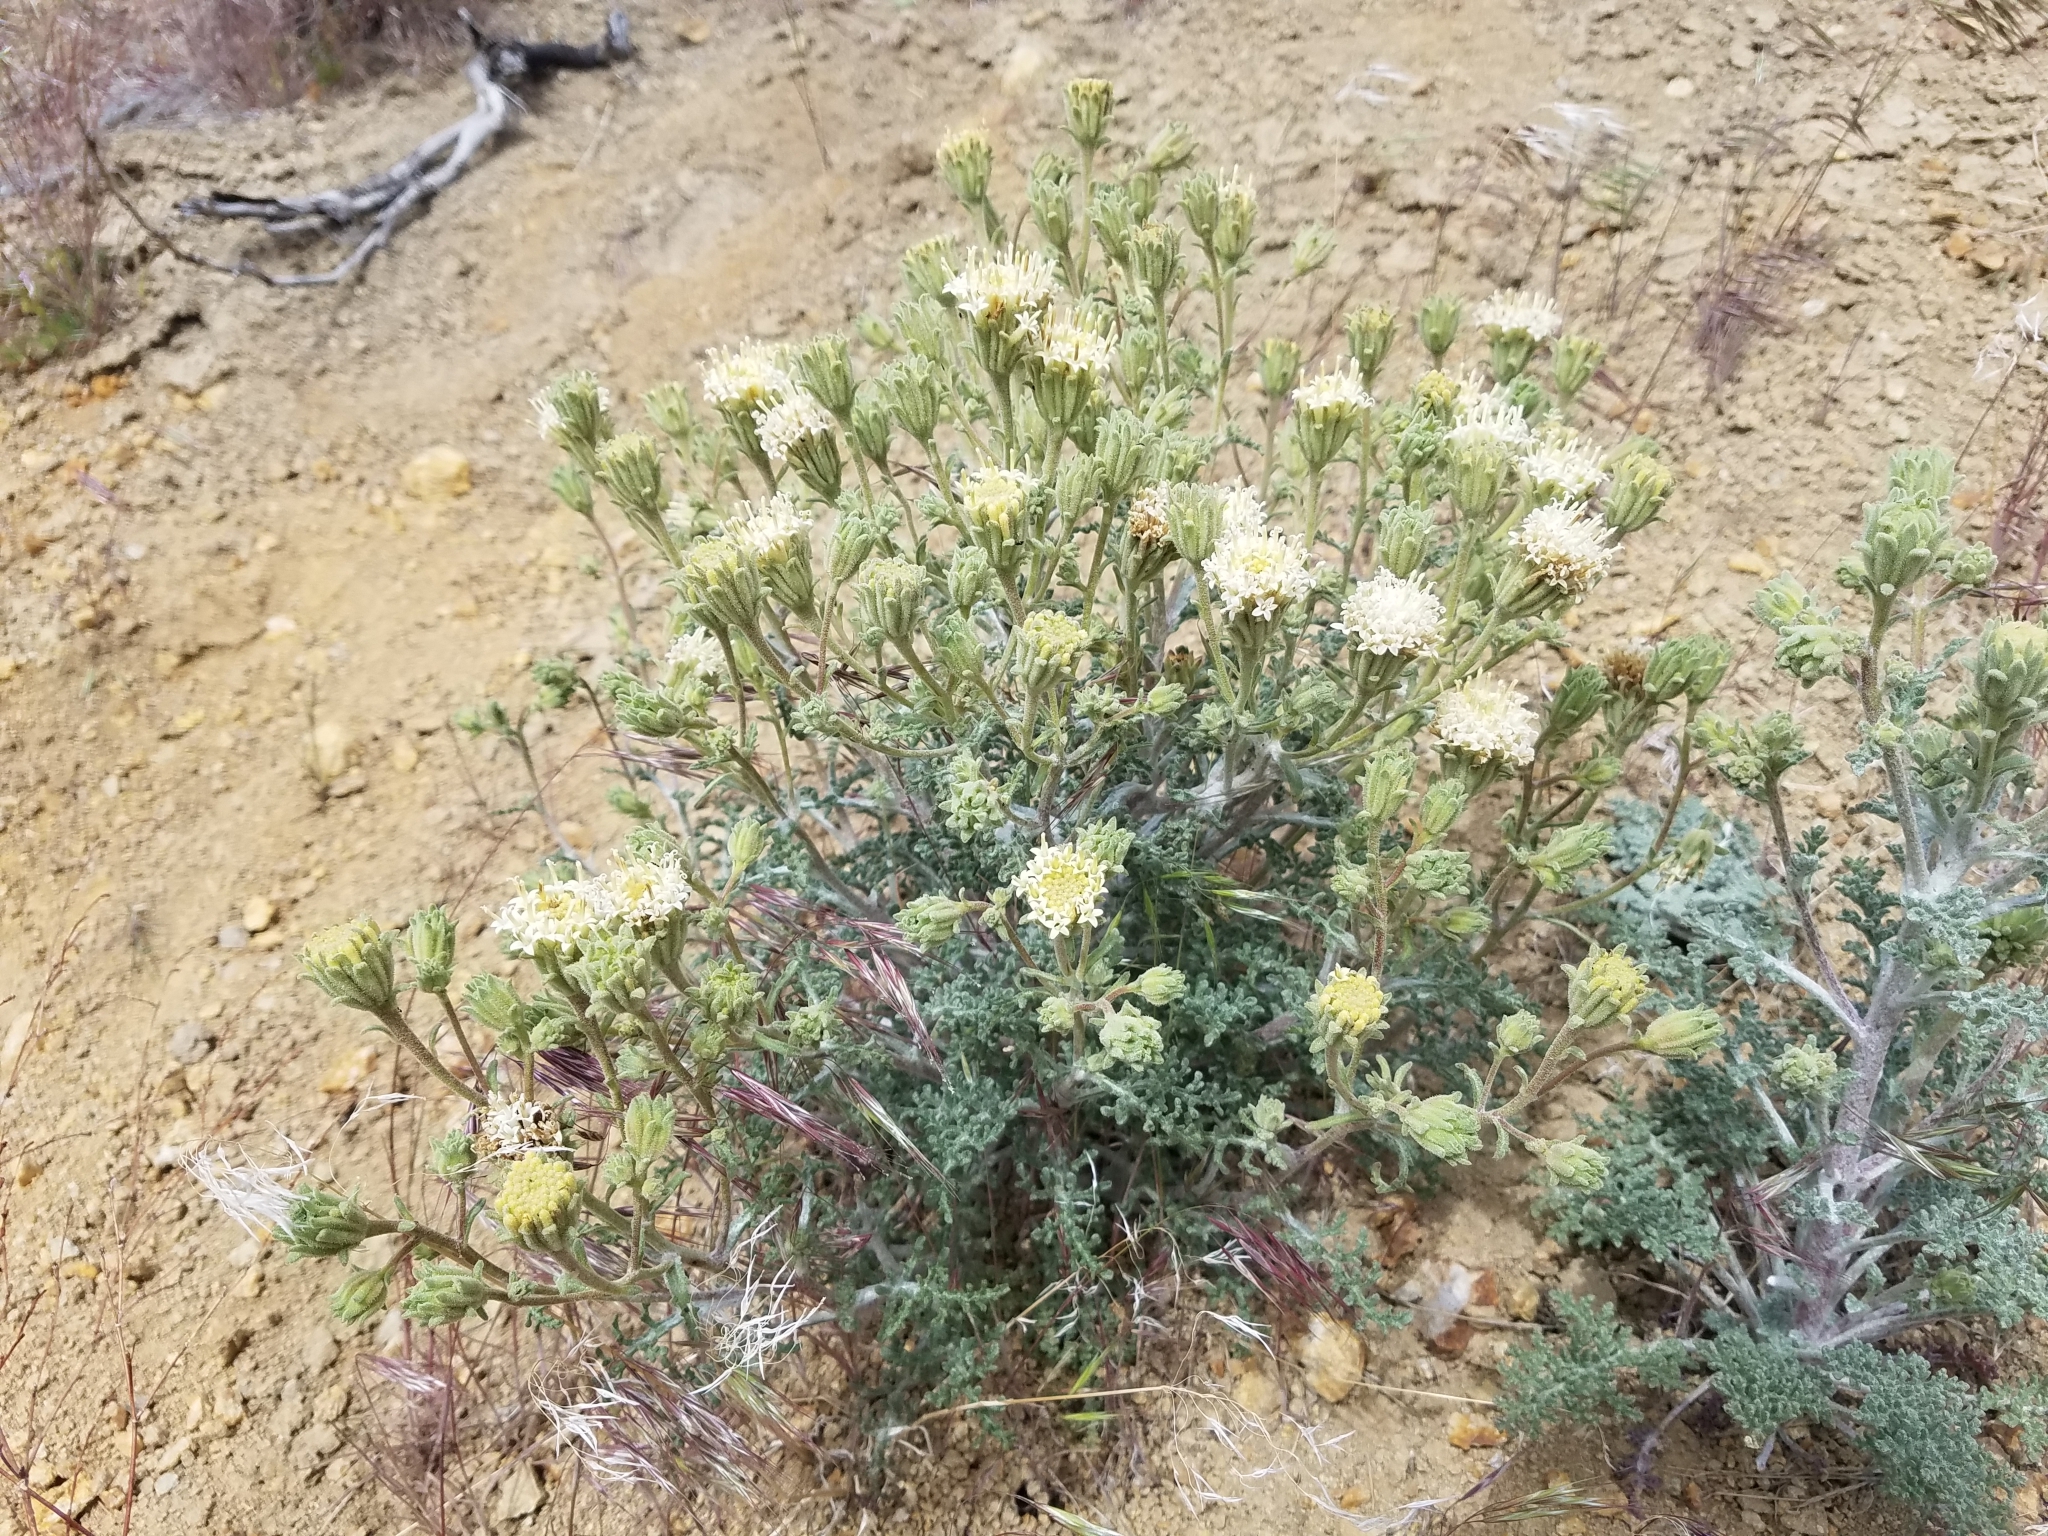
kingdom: Plantae
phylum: Tracheophyta
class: Magnoliopsida
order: Asterales
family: Asteraceae
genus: Chaenactis
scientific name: Chaenactis douglasii
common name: Hoary pincushion
